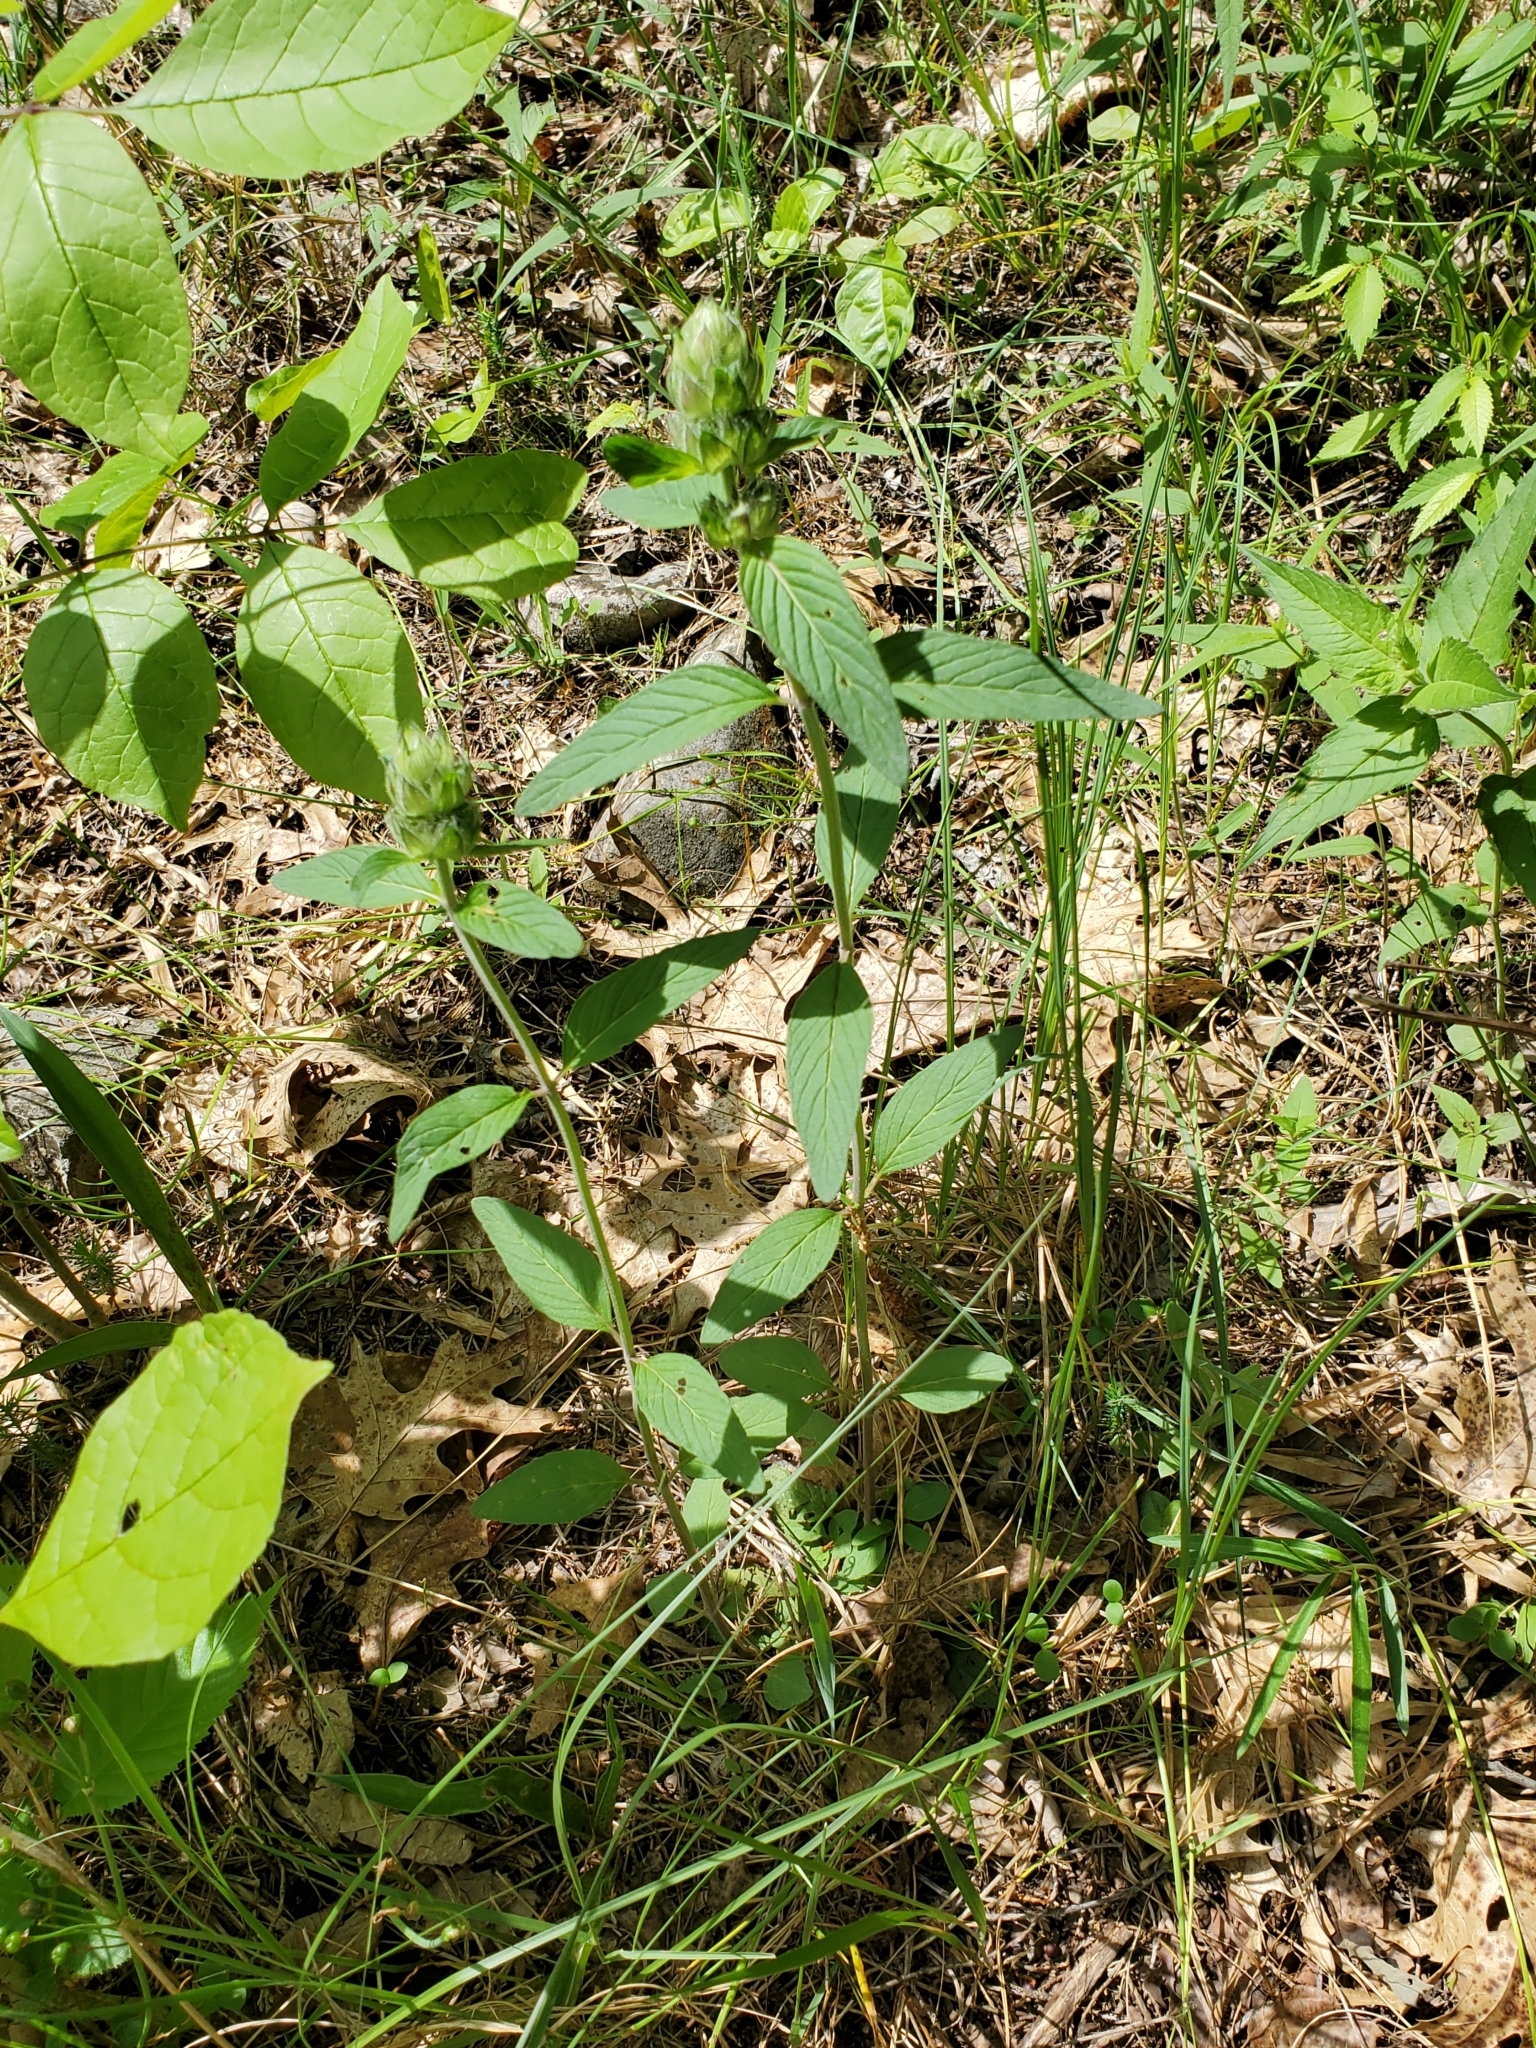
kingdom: Plantae
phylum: Tracheophyta
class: Magnoliopsida
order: Lamiales
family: Lamiaceae
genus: Blephilia
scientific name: Blephilia ciliata
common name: Downy blephilia
